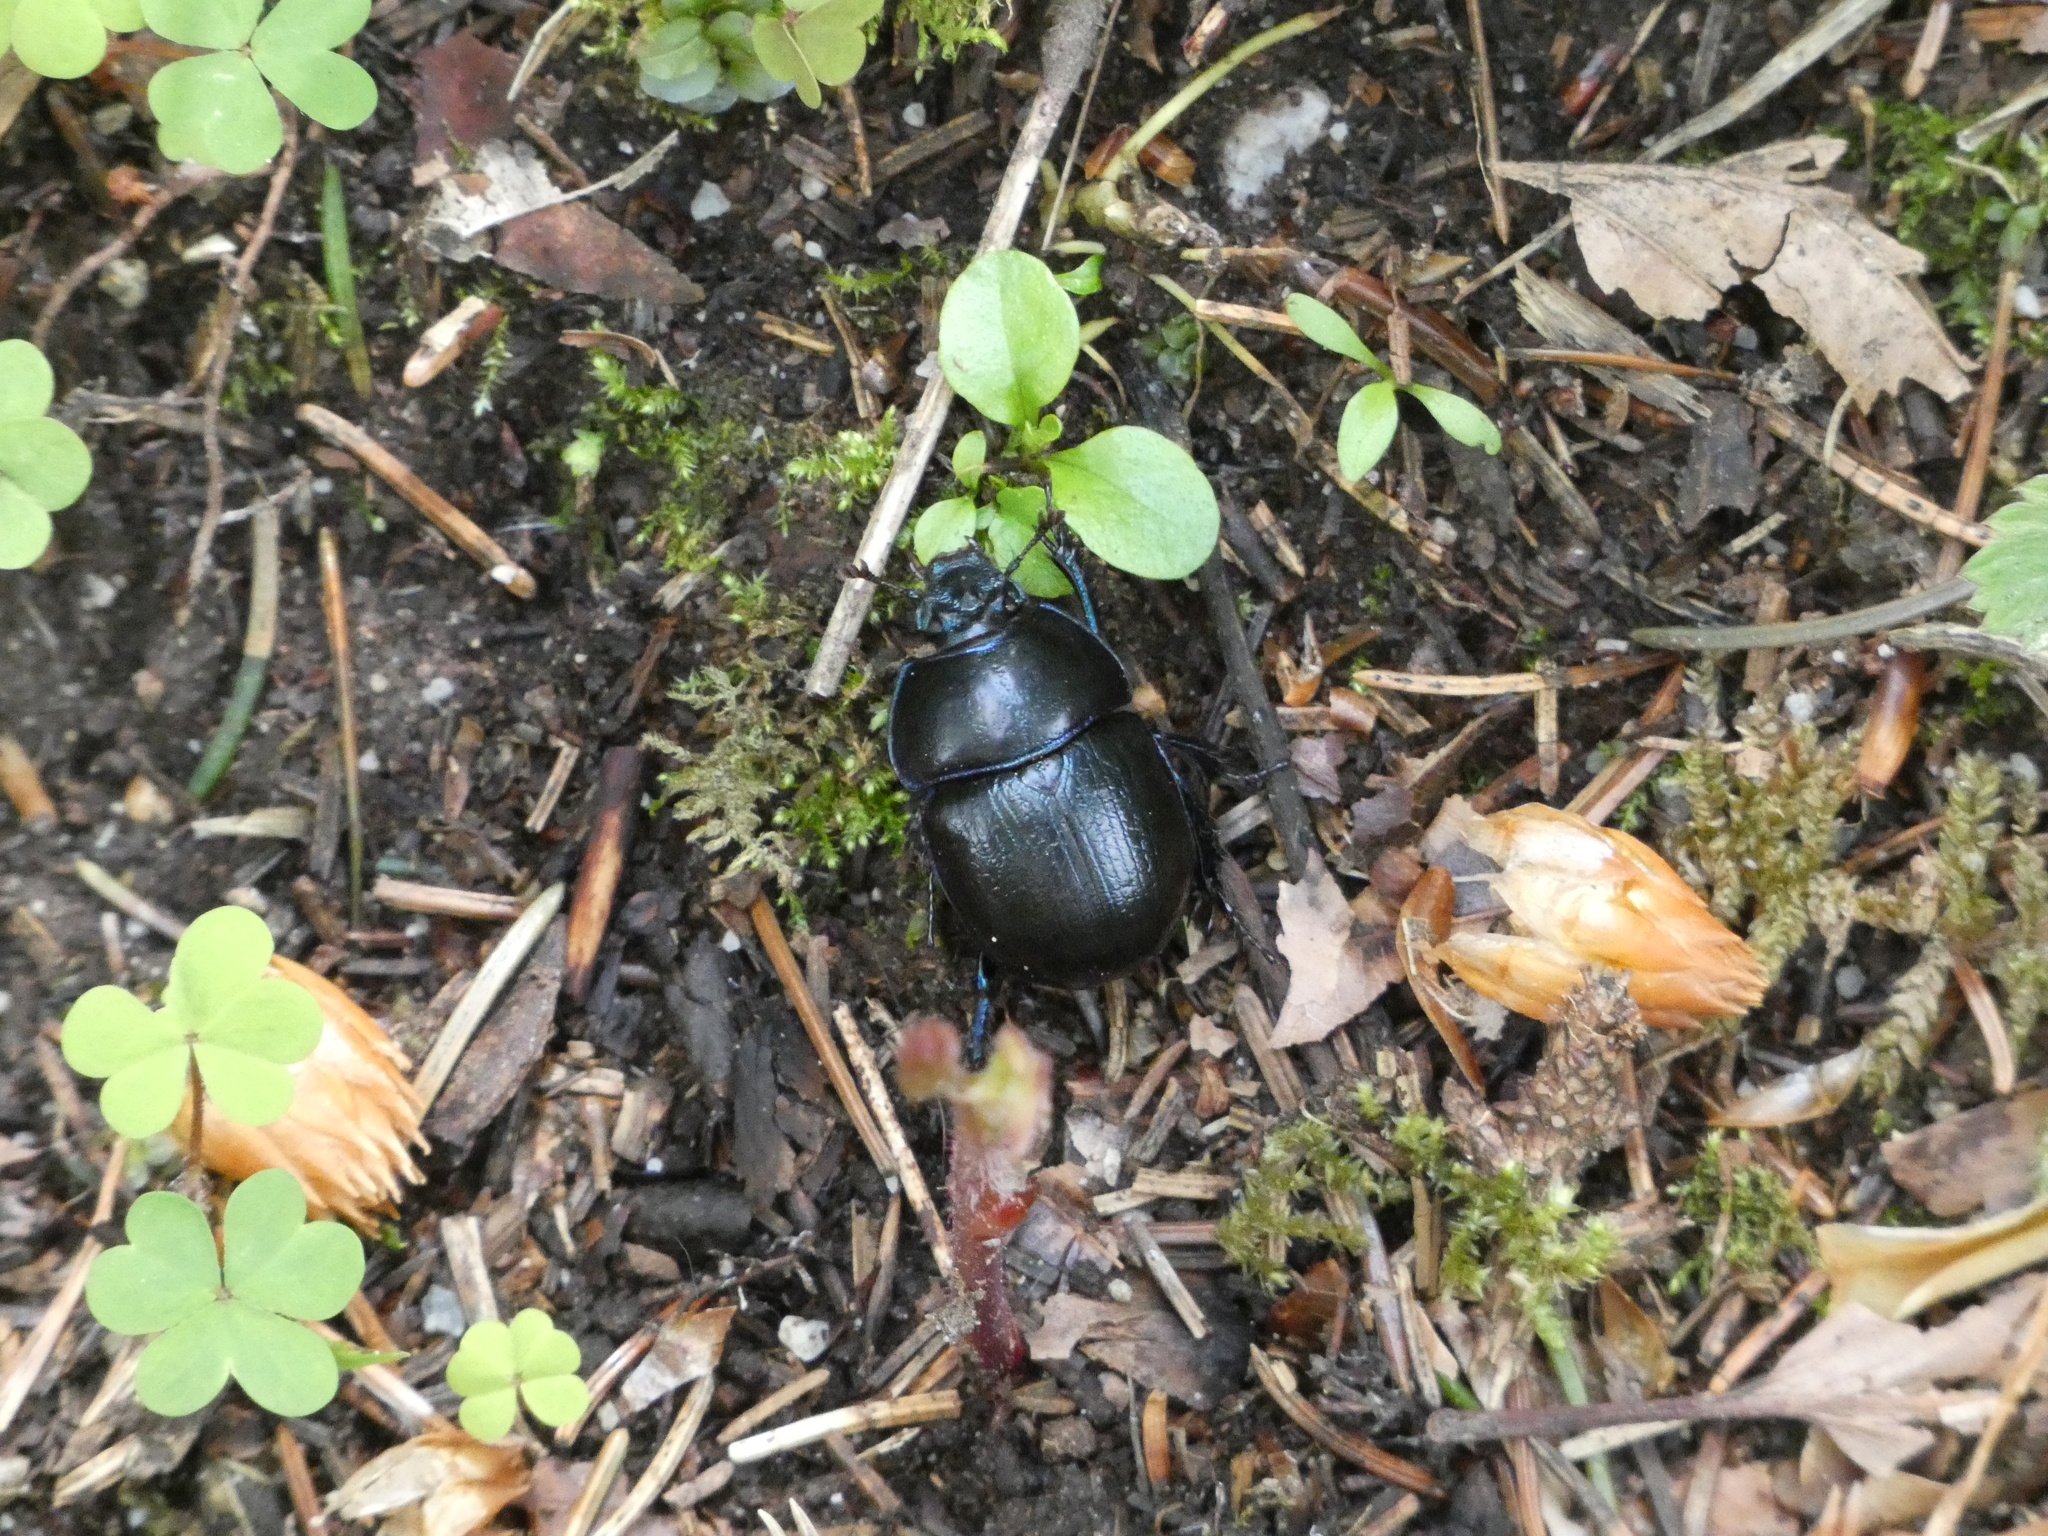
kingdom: Animalia
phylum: Arthropoda
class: Insecta
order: Coleoptera
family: Geotrupidae
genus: Anoplotrupes
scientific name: Anoplotrupes stercorosus
